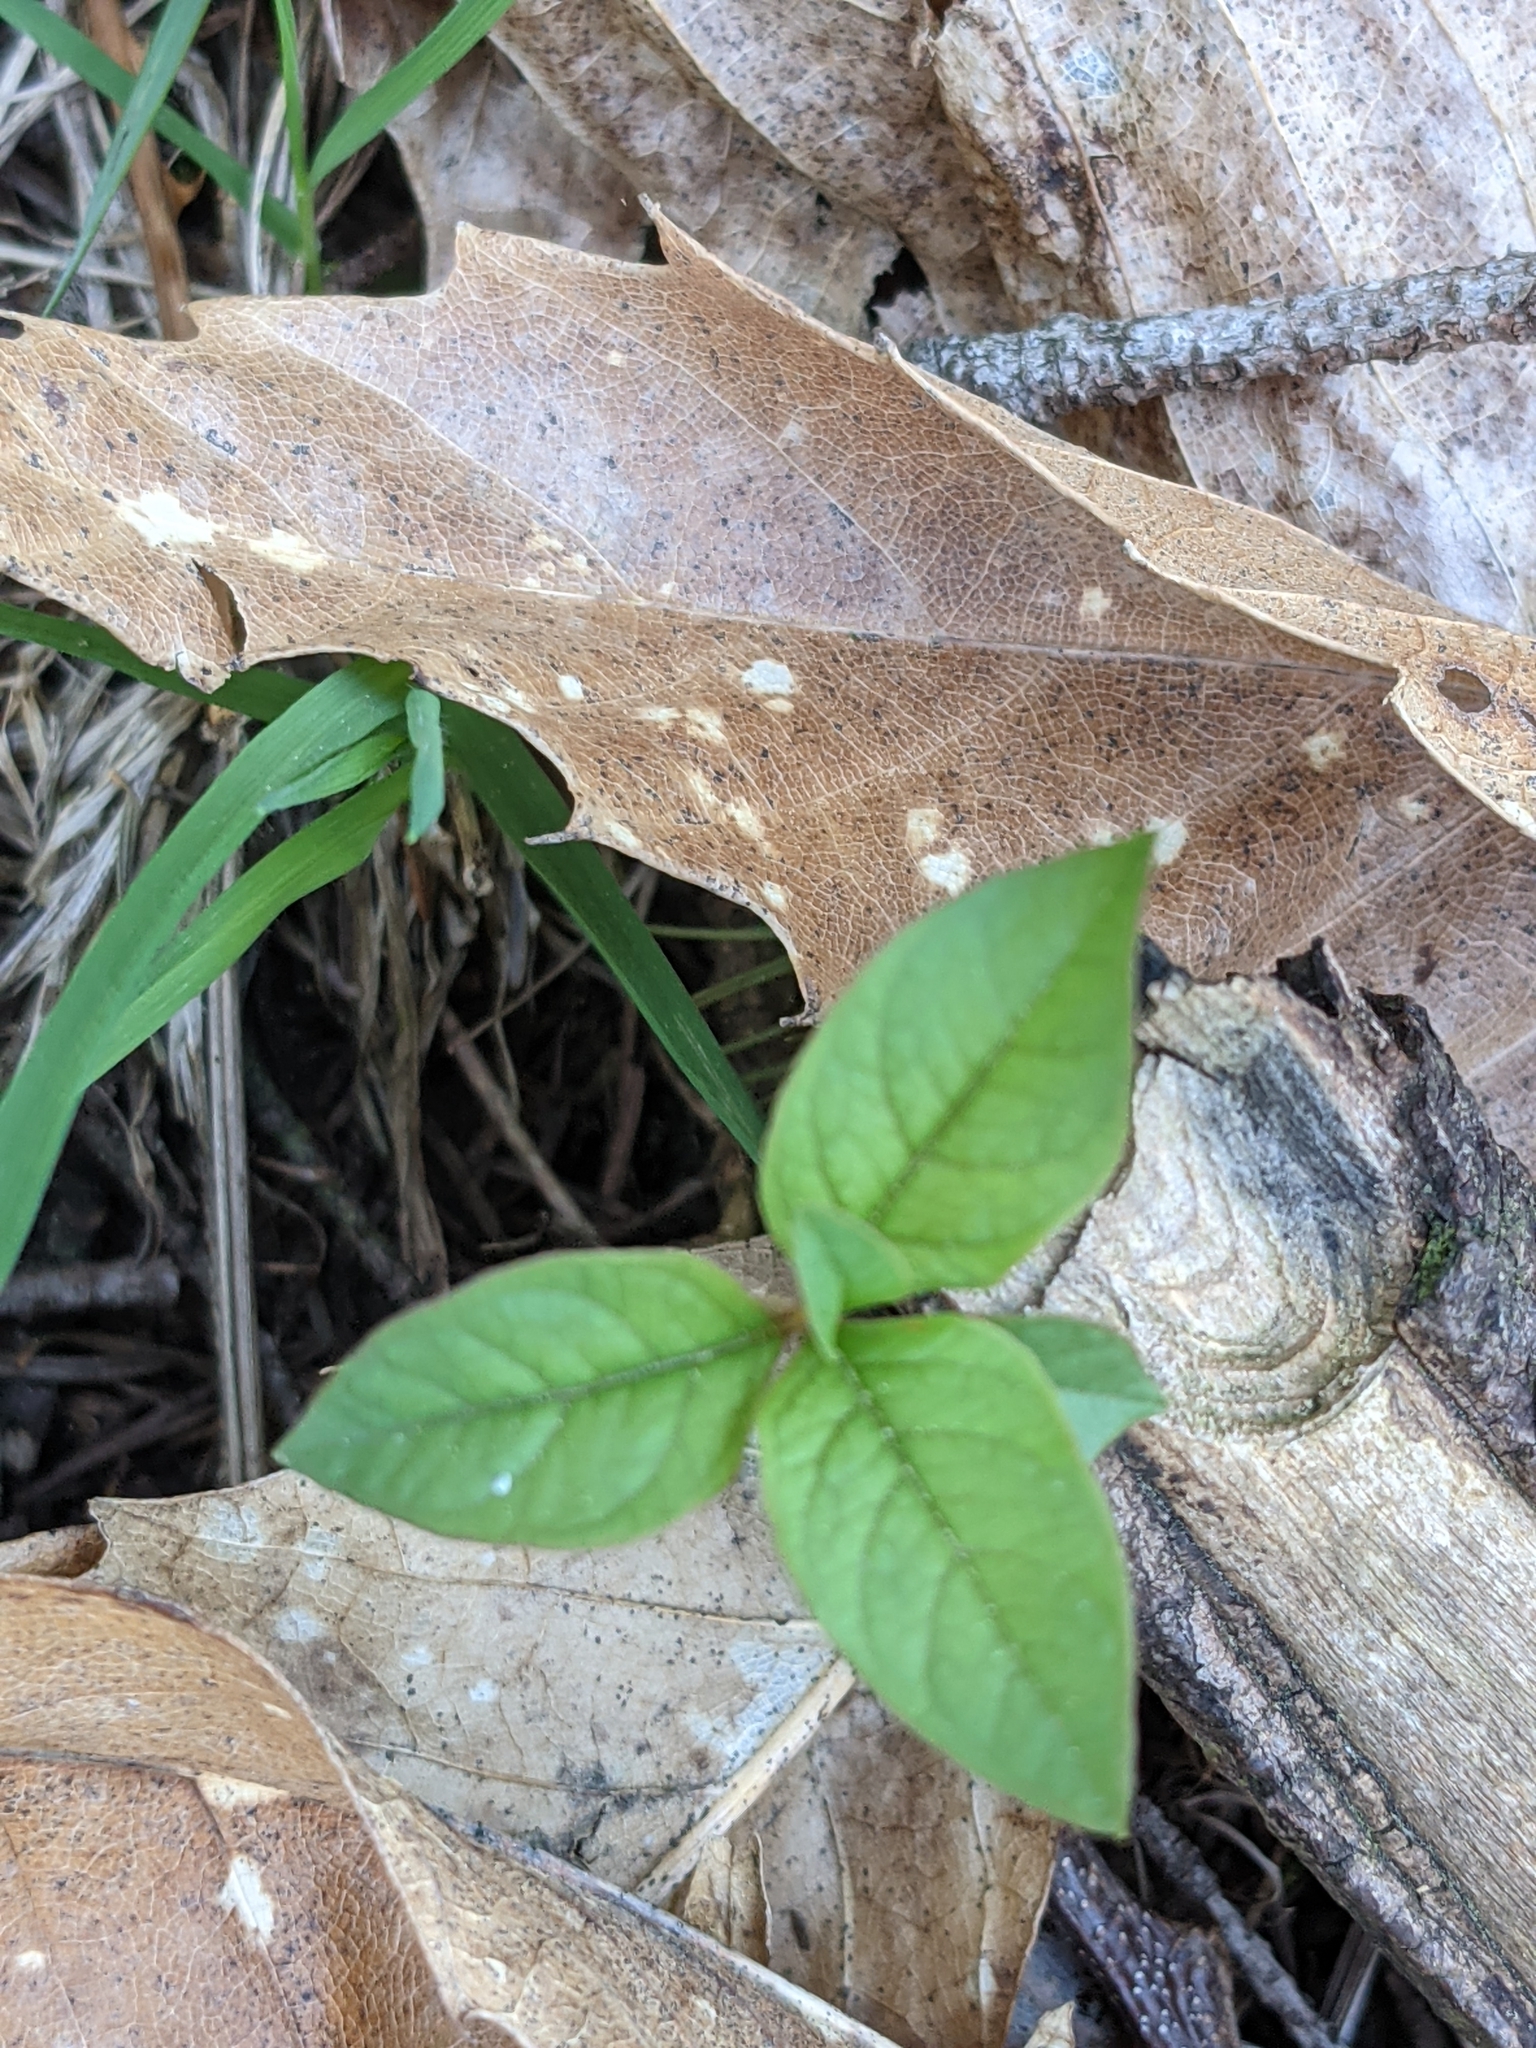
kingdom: Plantae
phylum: Tracheophyta
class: Magnoliopsida
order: Ericales
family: Primulaceae
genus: Lysimachia
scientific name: Lysimachia latifolia
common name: Pacific starflower
